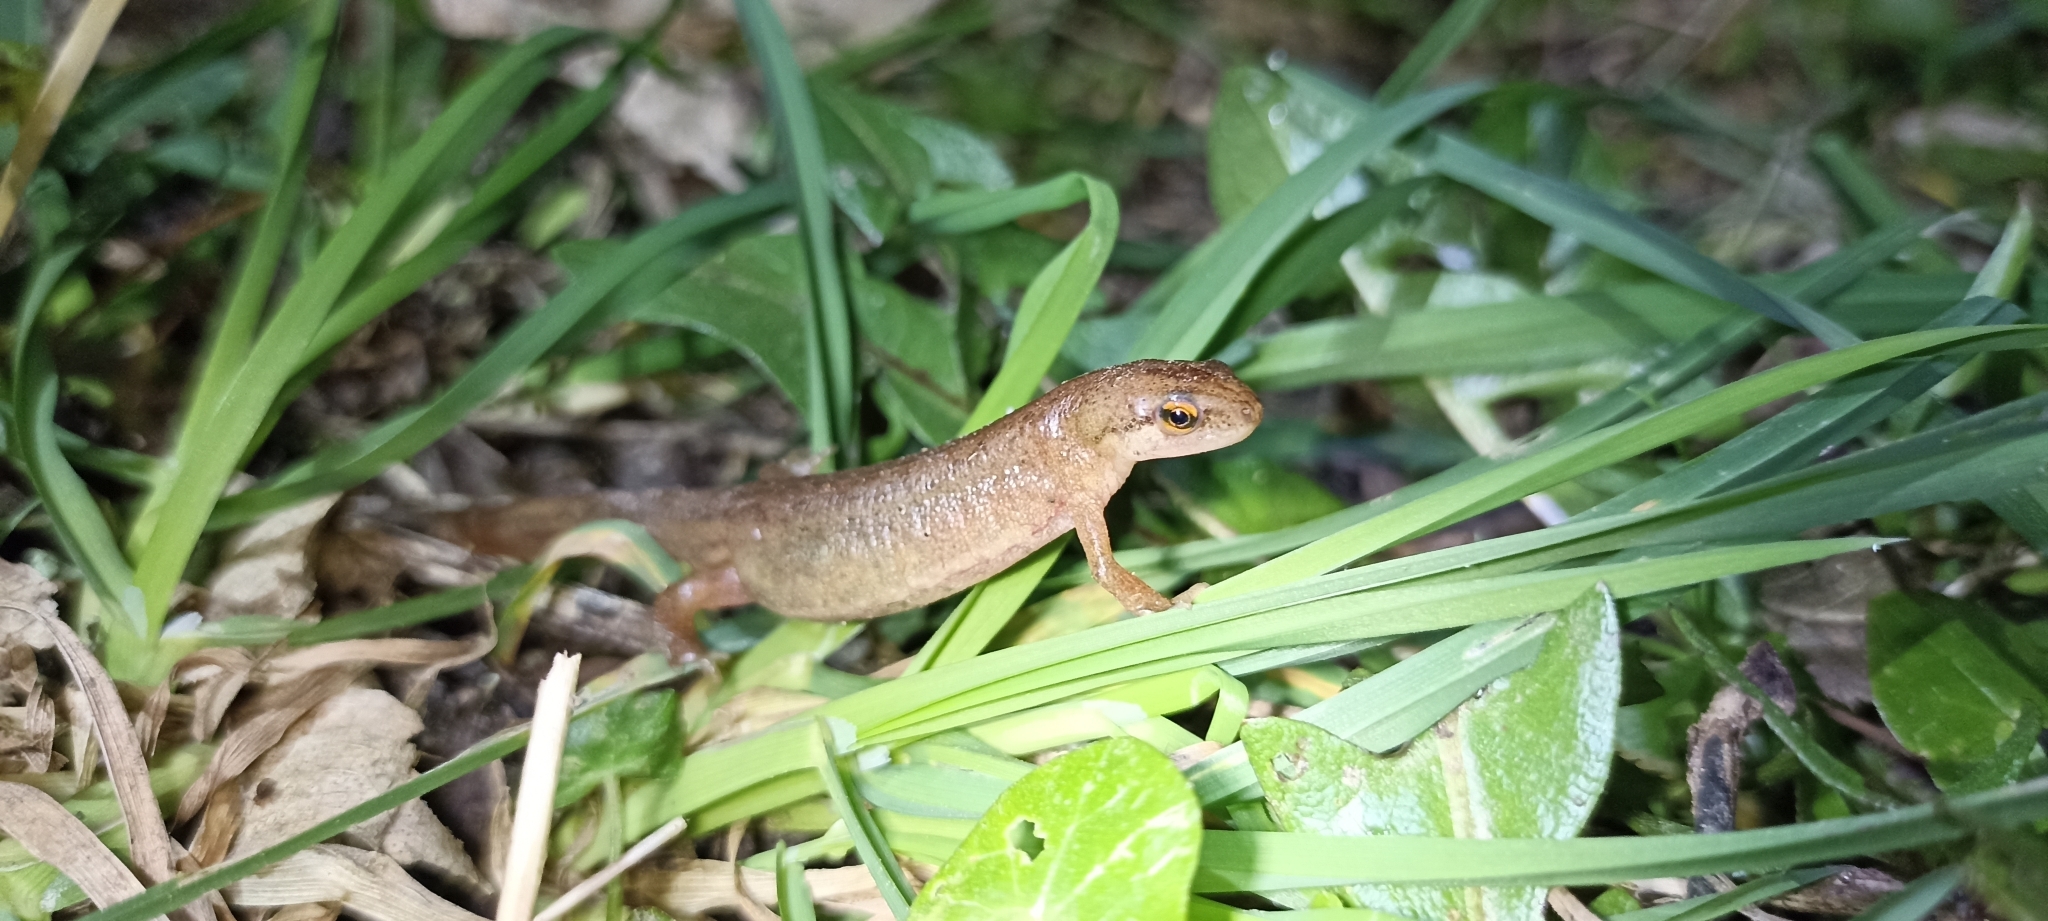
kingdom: Animalia
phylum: Chordata
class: Amphibia
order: Caudata
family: Salamandridae
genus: Lissotriton
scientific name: Lissotriton helveticus
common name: Palmate newt
